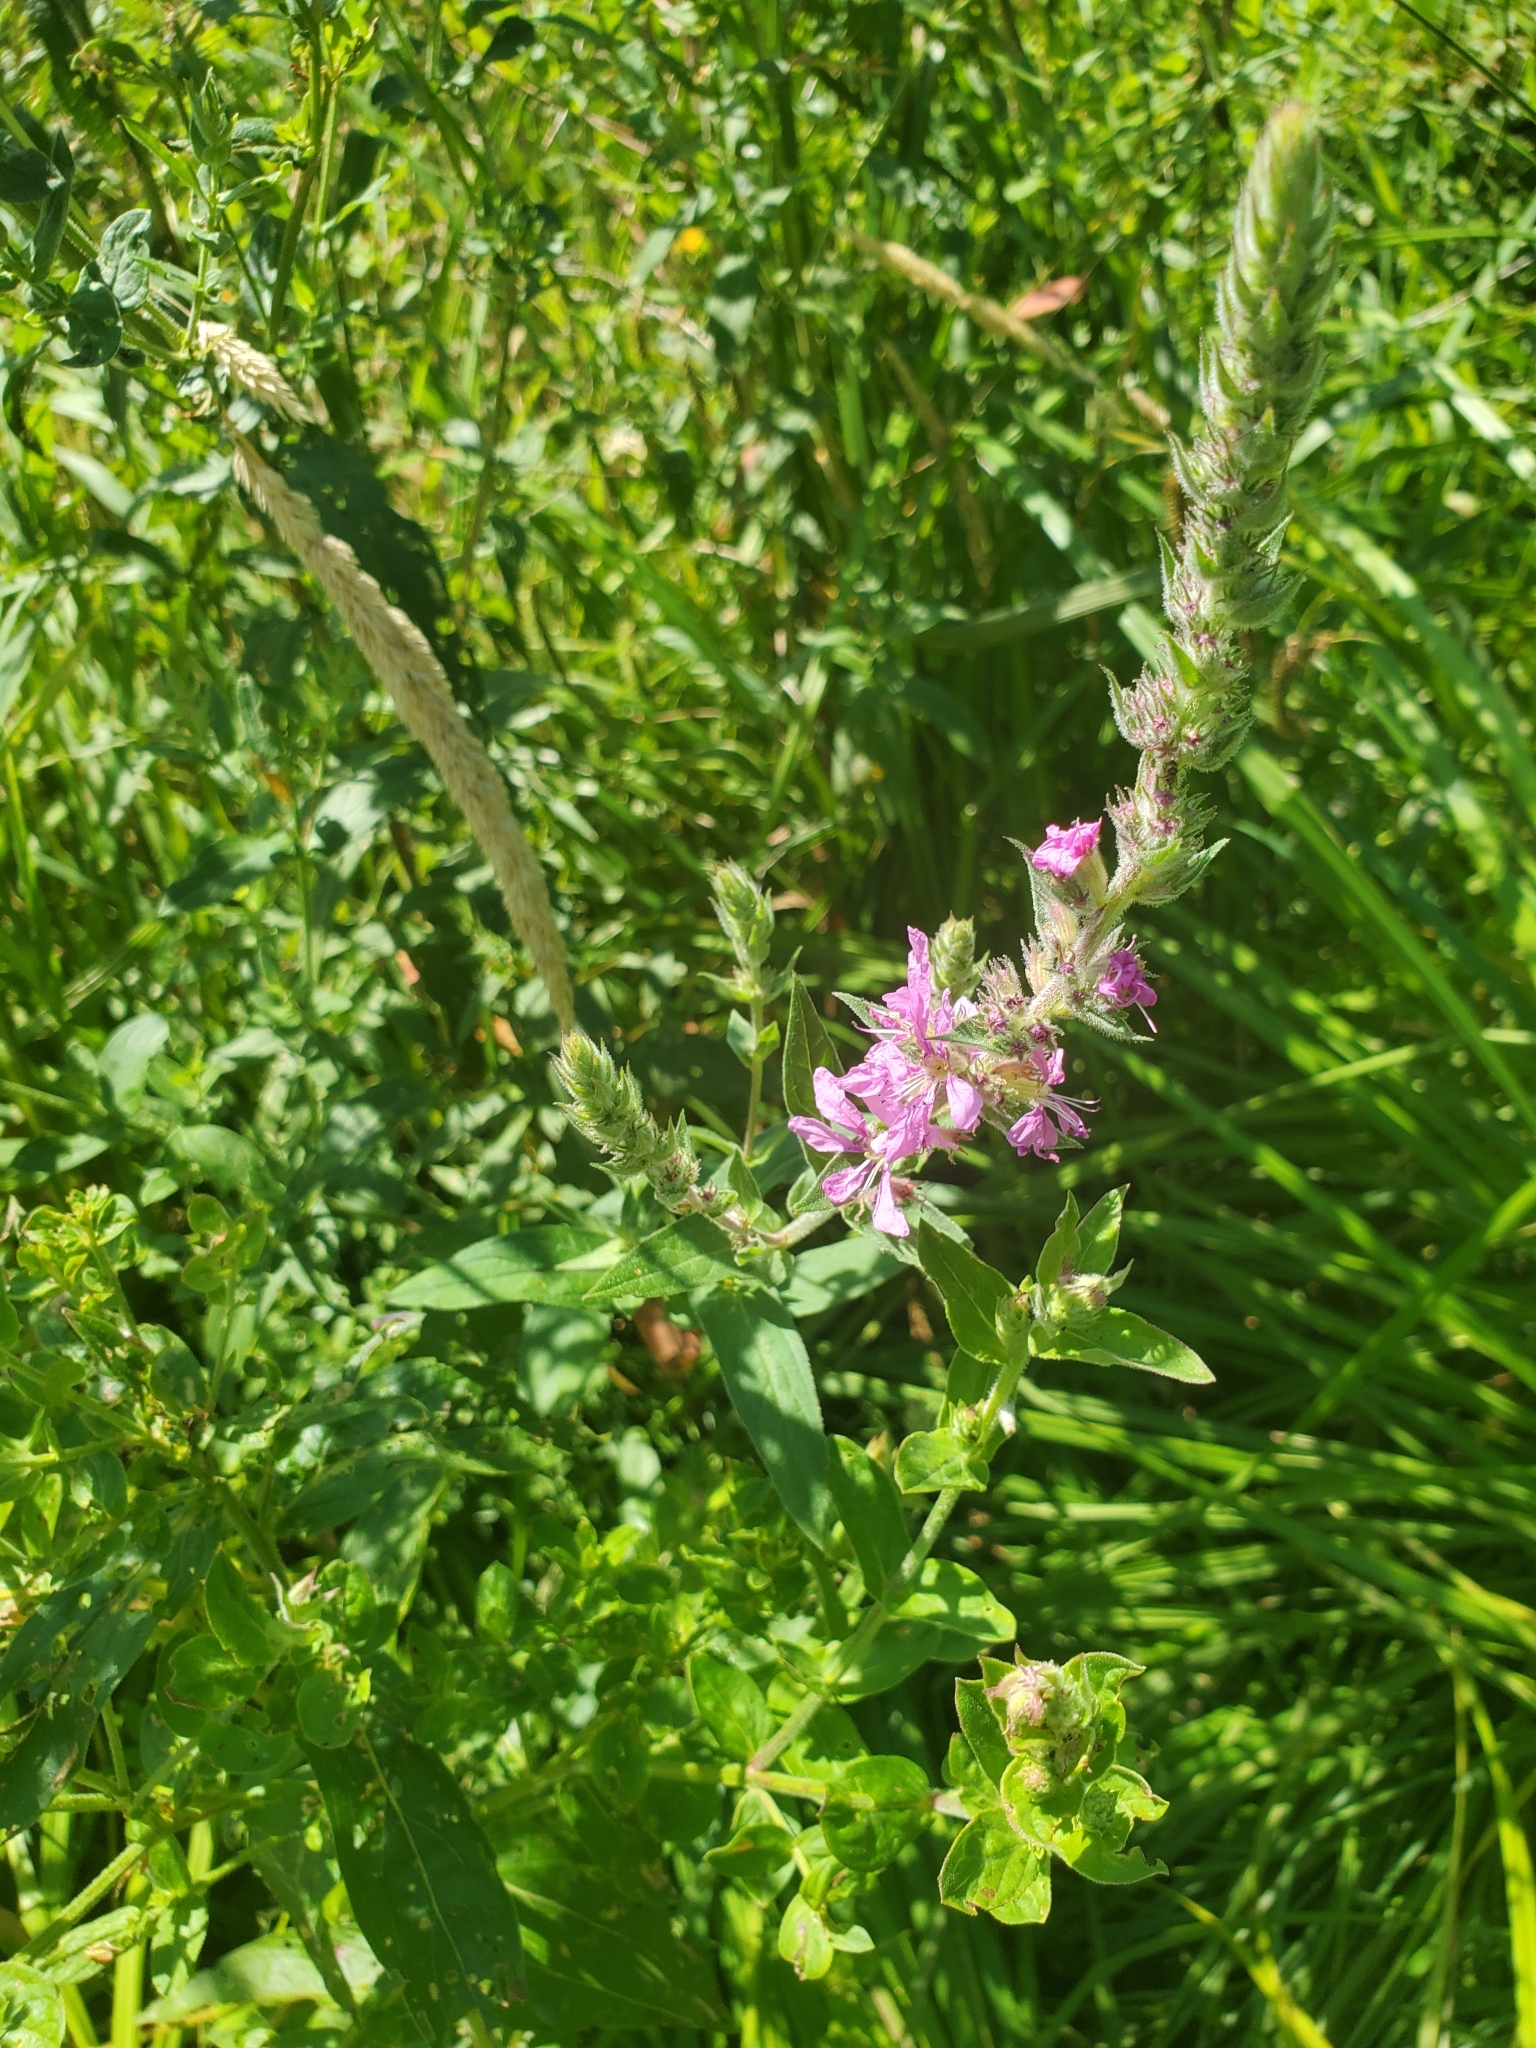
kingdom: Plantae
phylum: Tracheophyta
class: Magnoliopsida
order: Myrtales
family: Lythraceae
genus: Lythrum
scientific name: Lythrum salicaria
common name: Purple loosestrife
